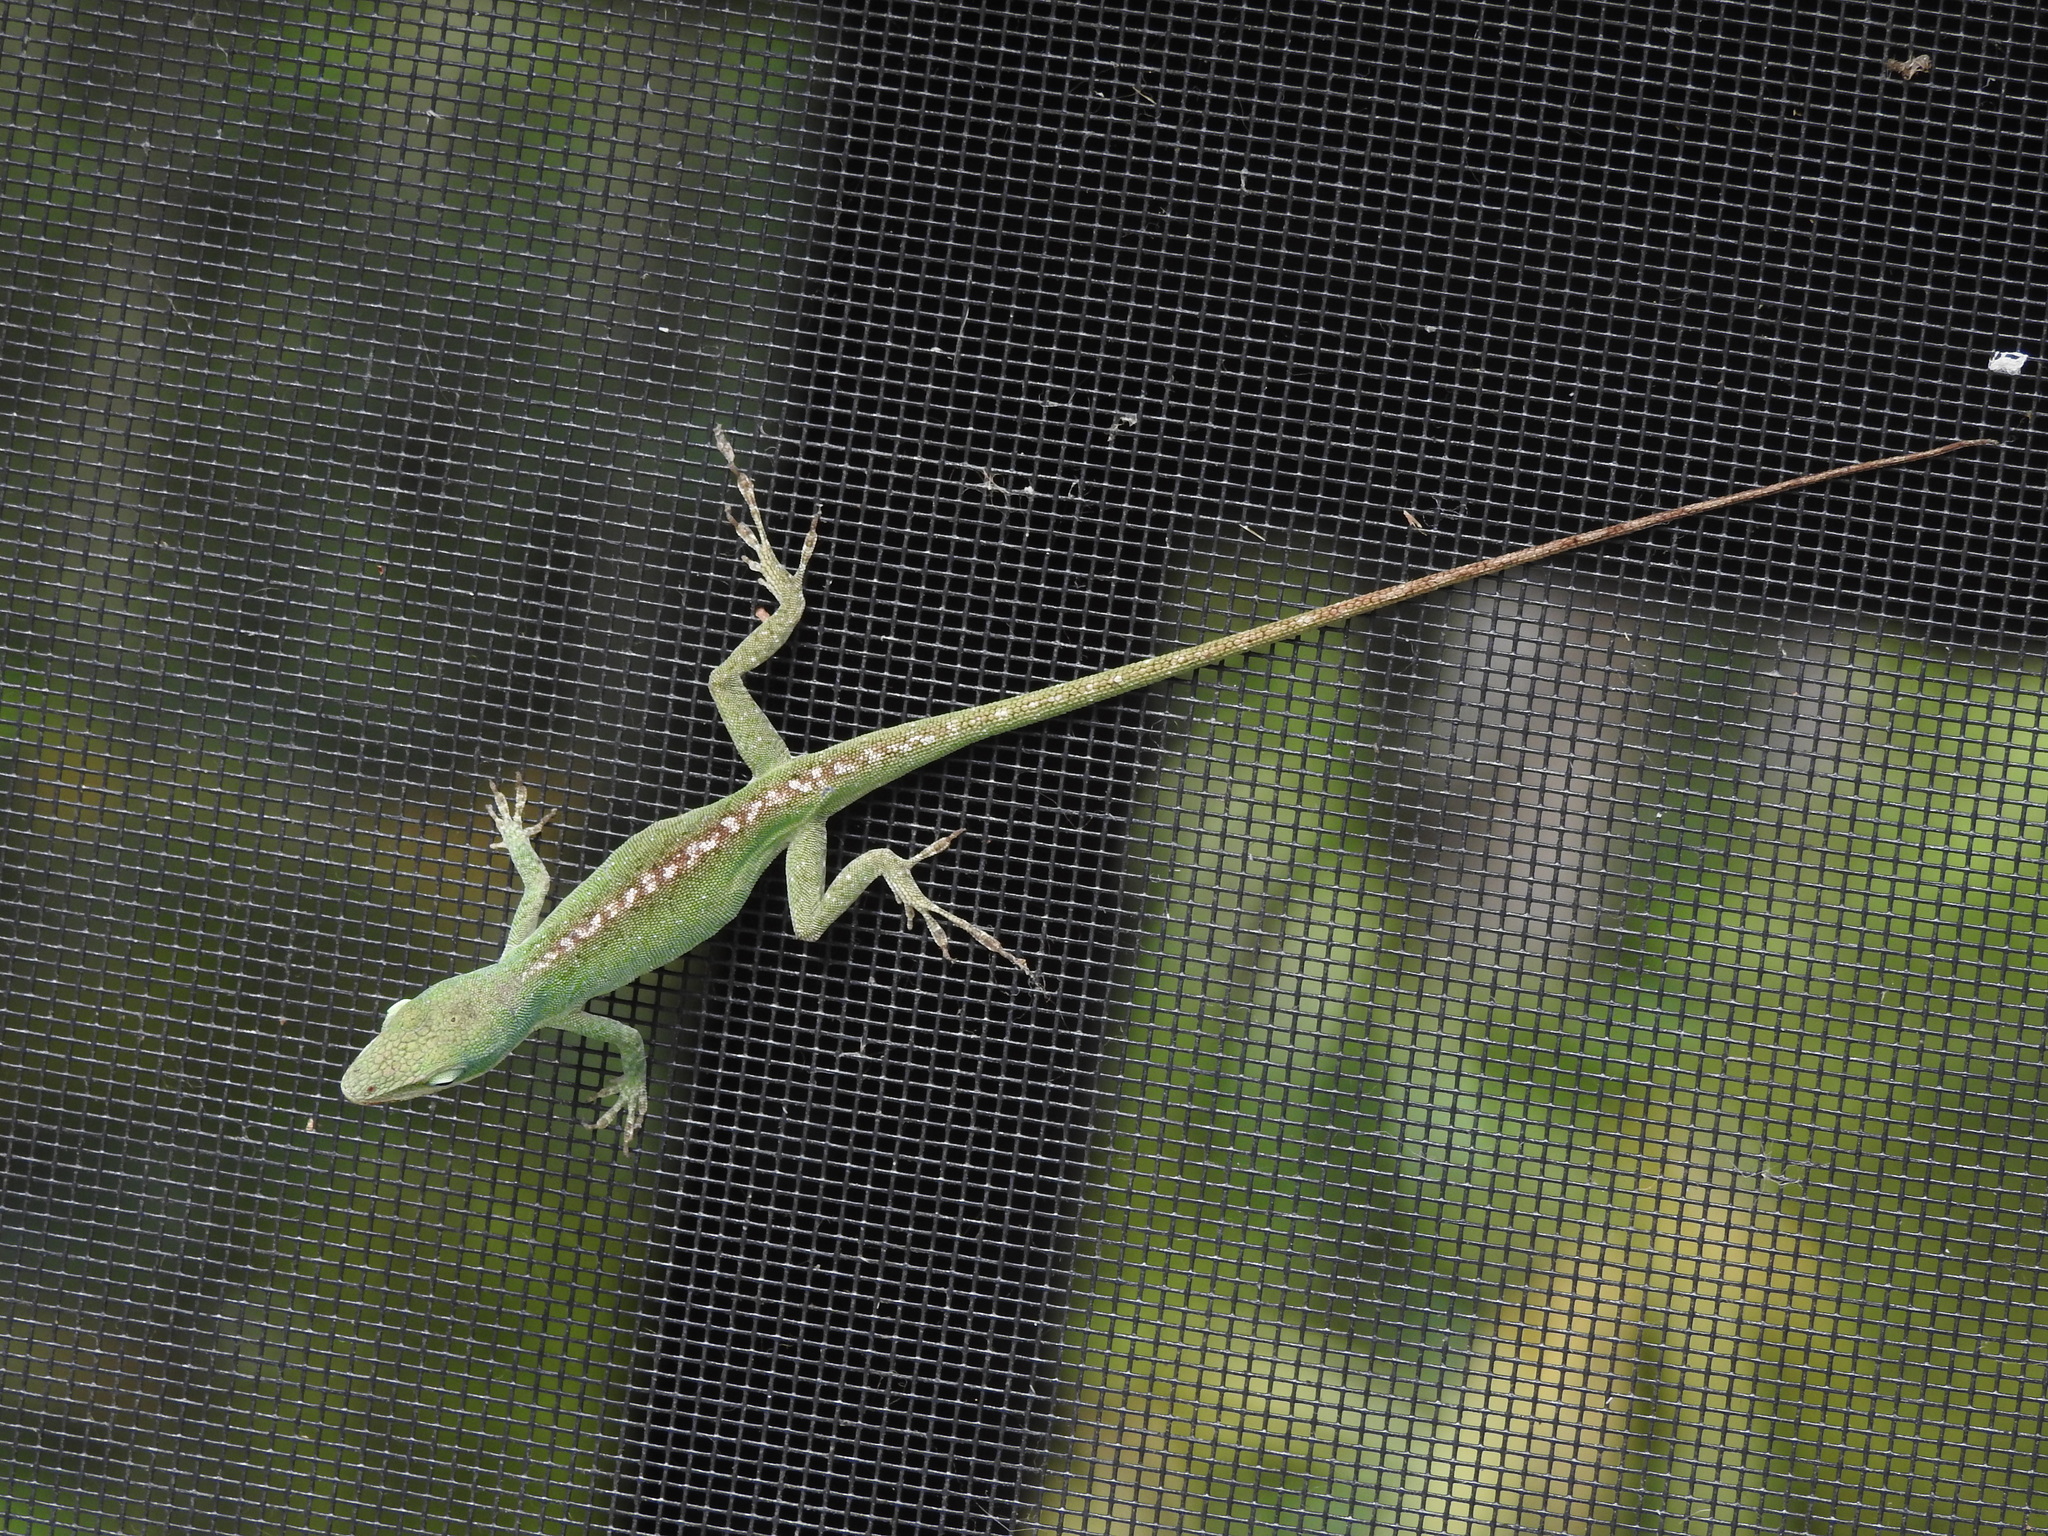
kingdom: Animalia
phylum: Chordata
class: Squamata
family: Dactyloidae
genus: Anolis
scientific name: Anolis carolinensis
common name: Green anole
